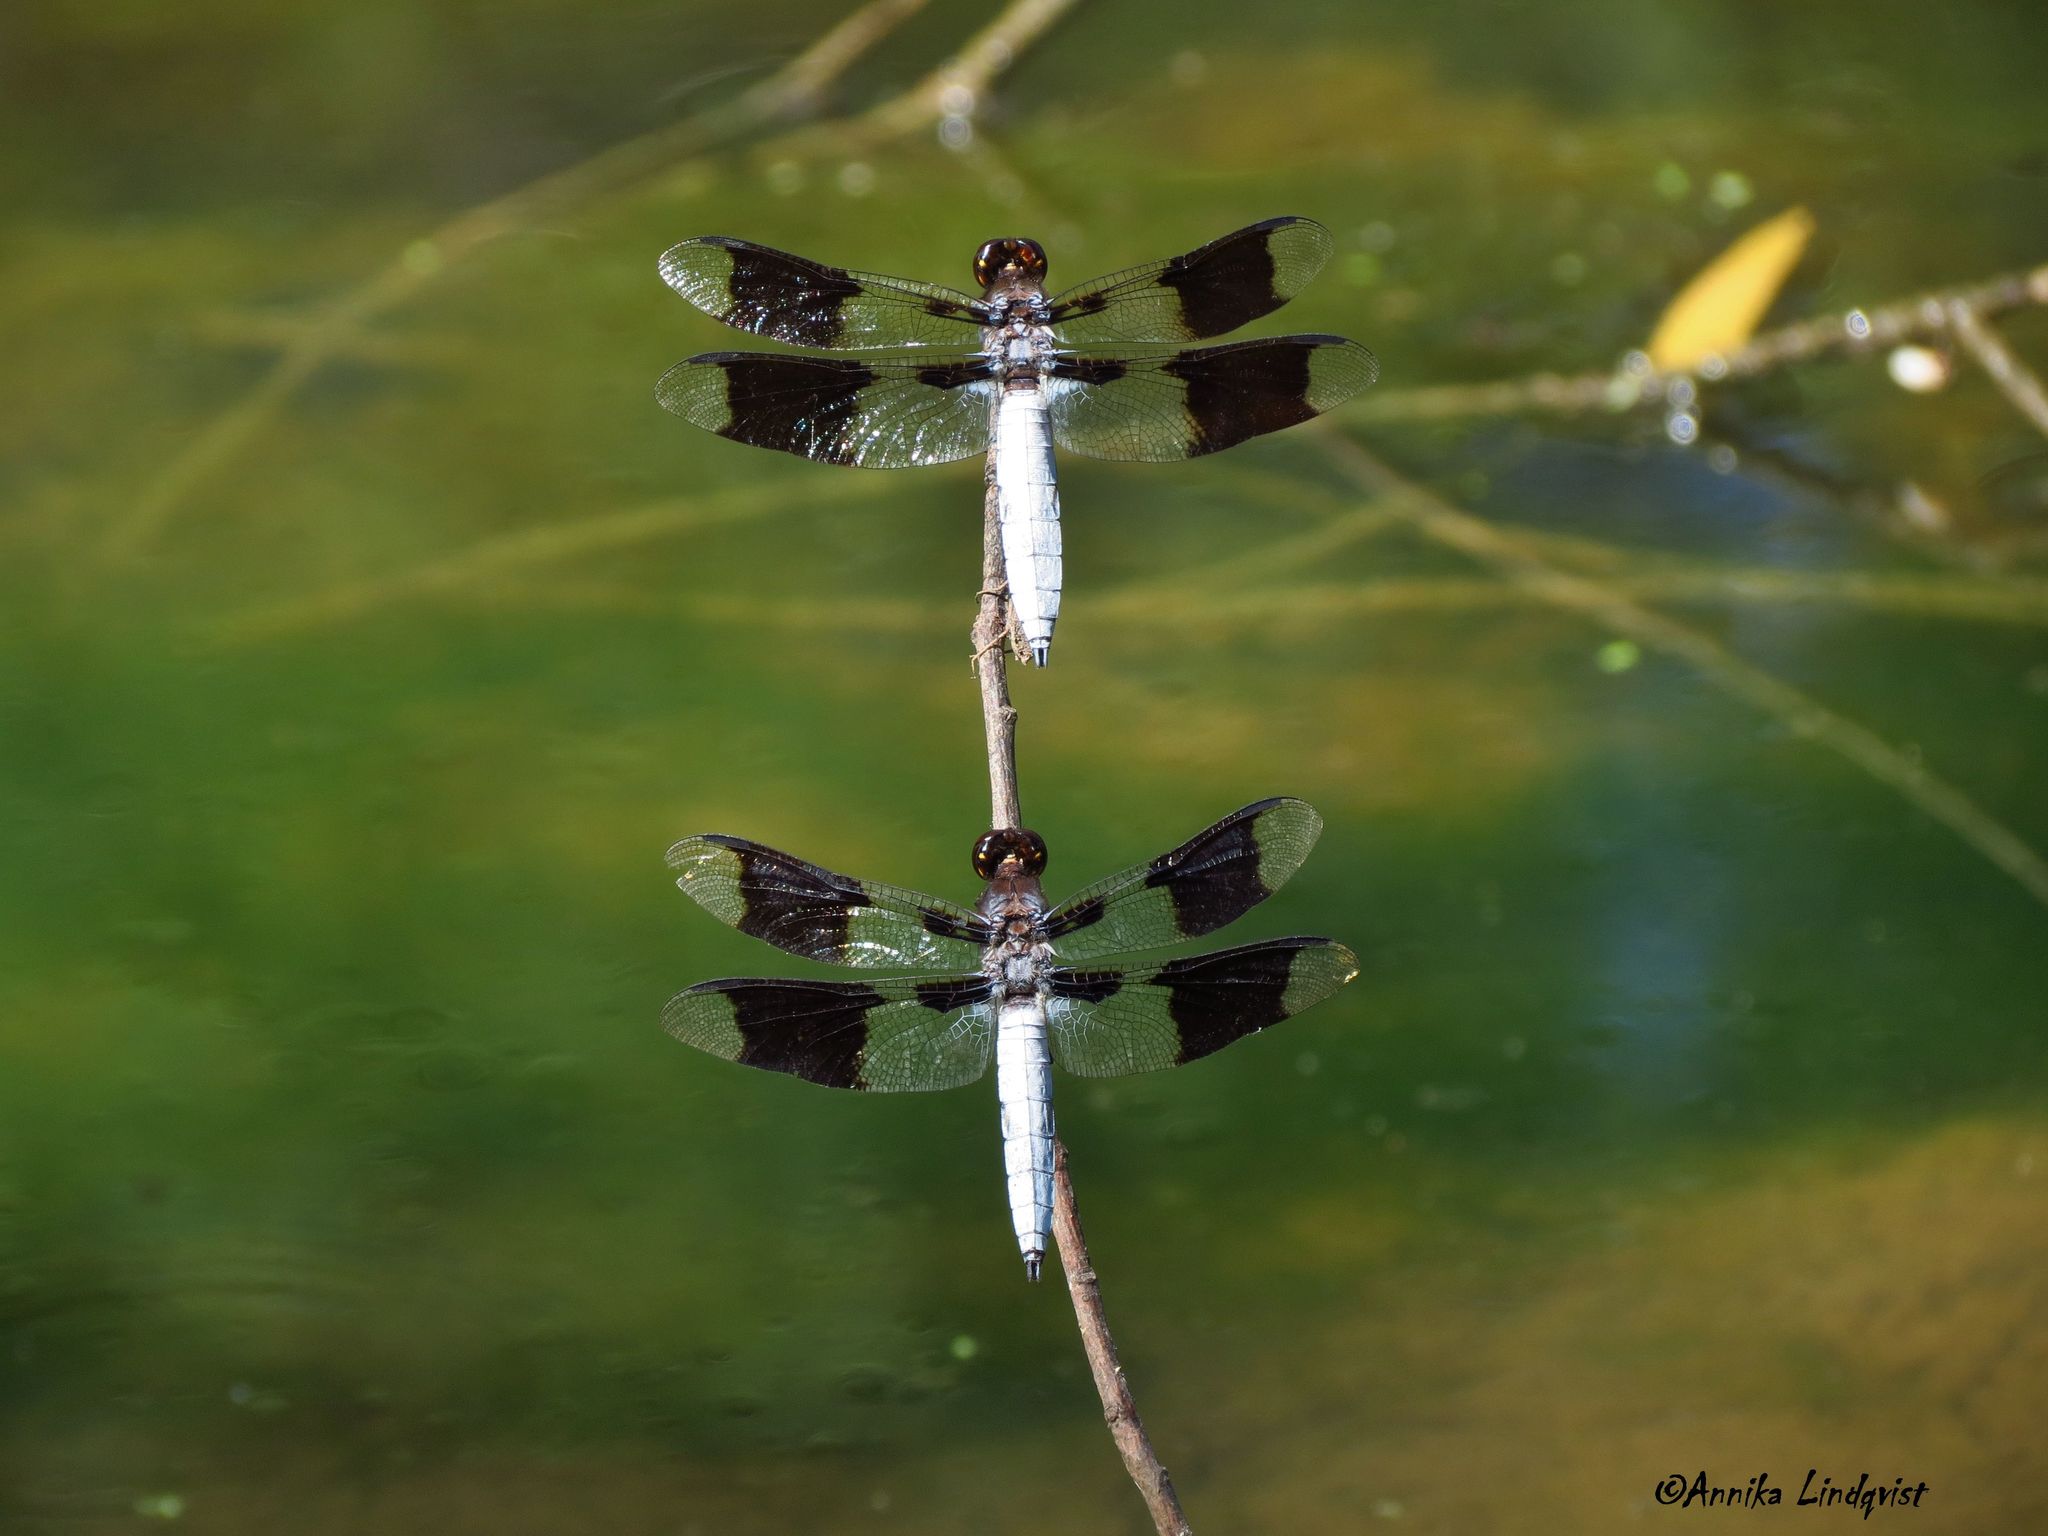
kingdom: Animalia
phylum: Arthropoda
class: Insecta
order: Odonata
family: Libellulidae
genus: Plathemis
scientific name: Plathemis lydia
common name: Common whitetail
